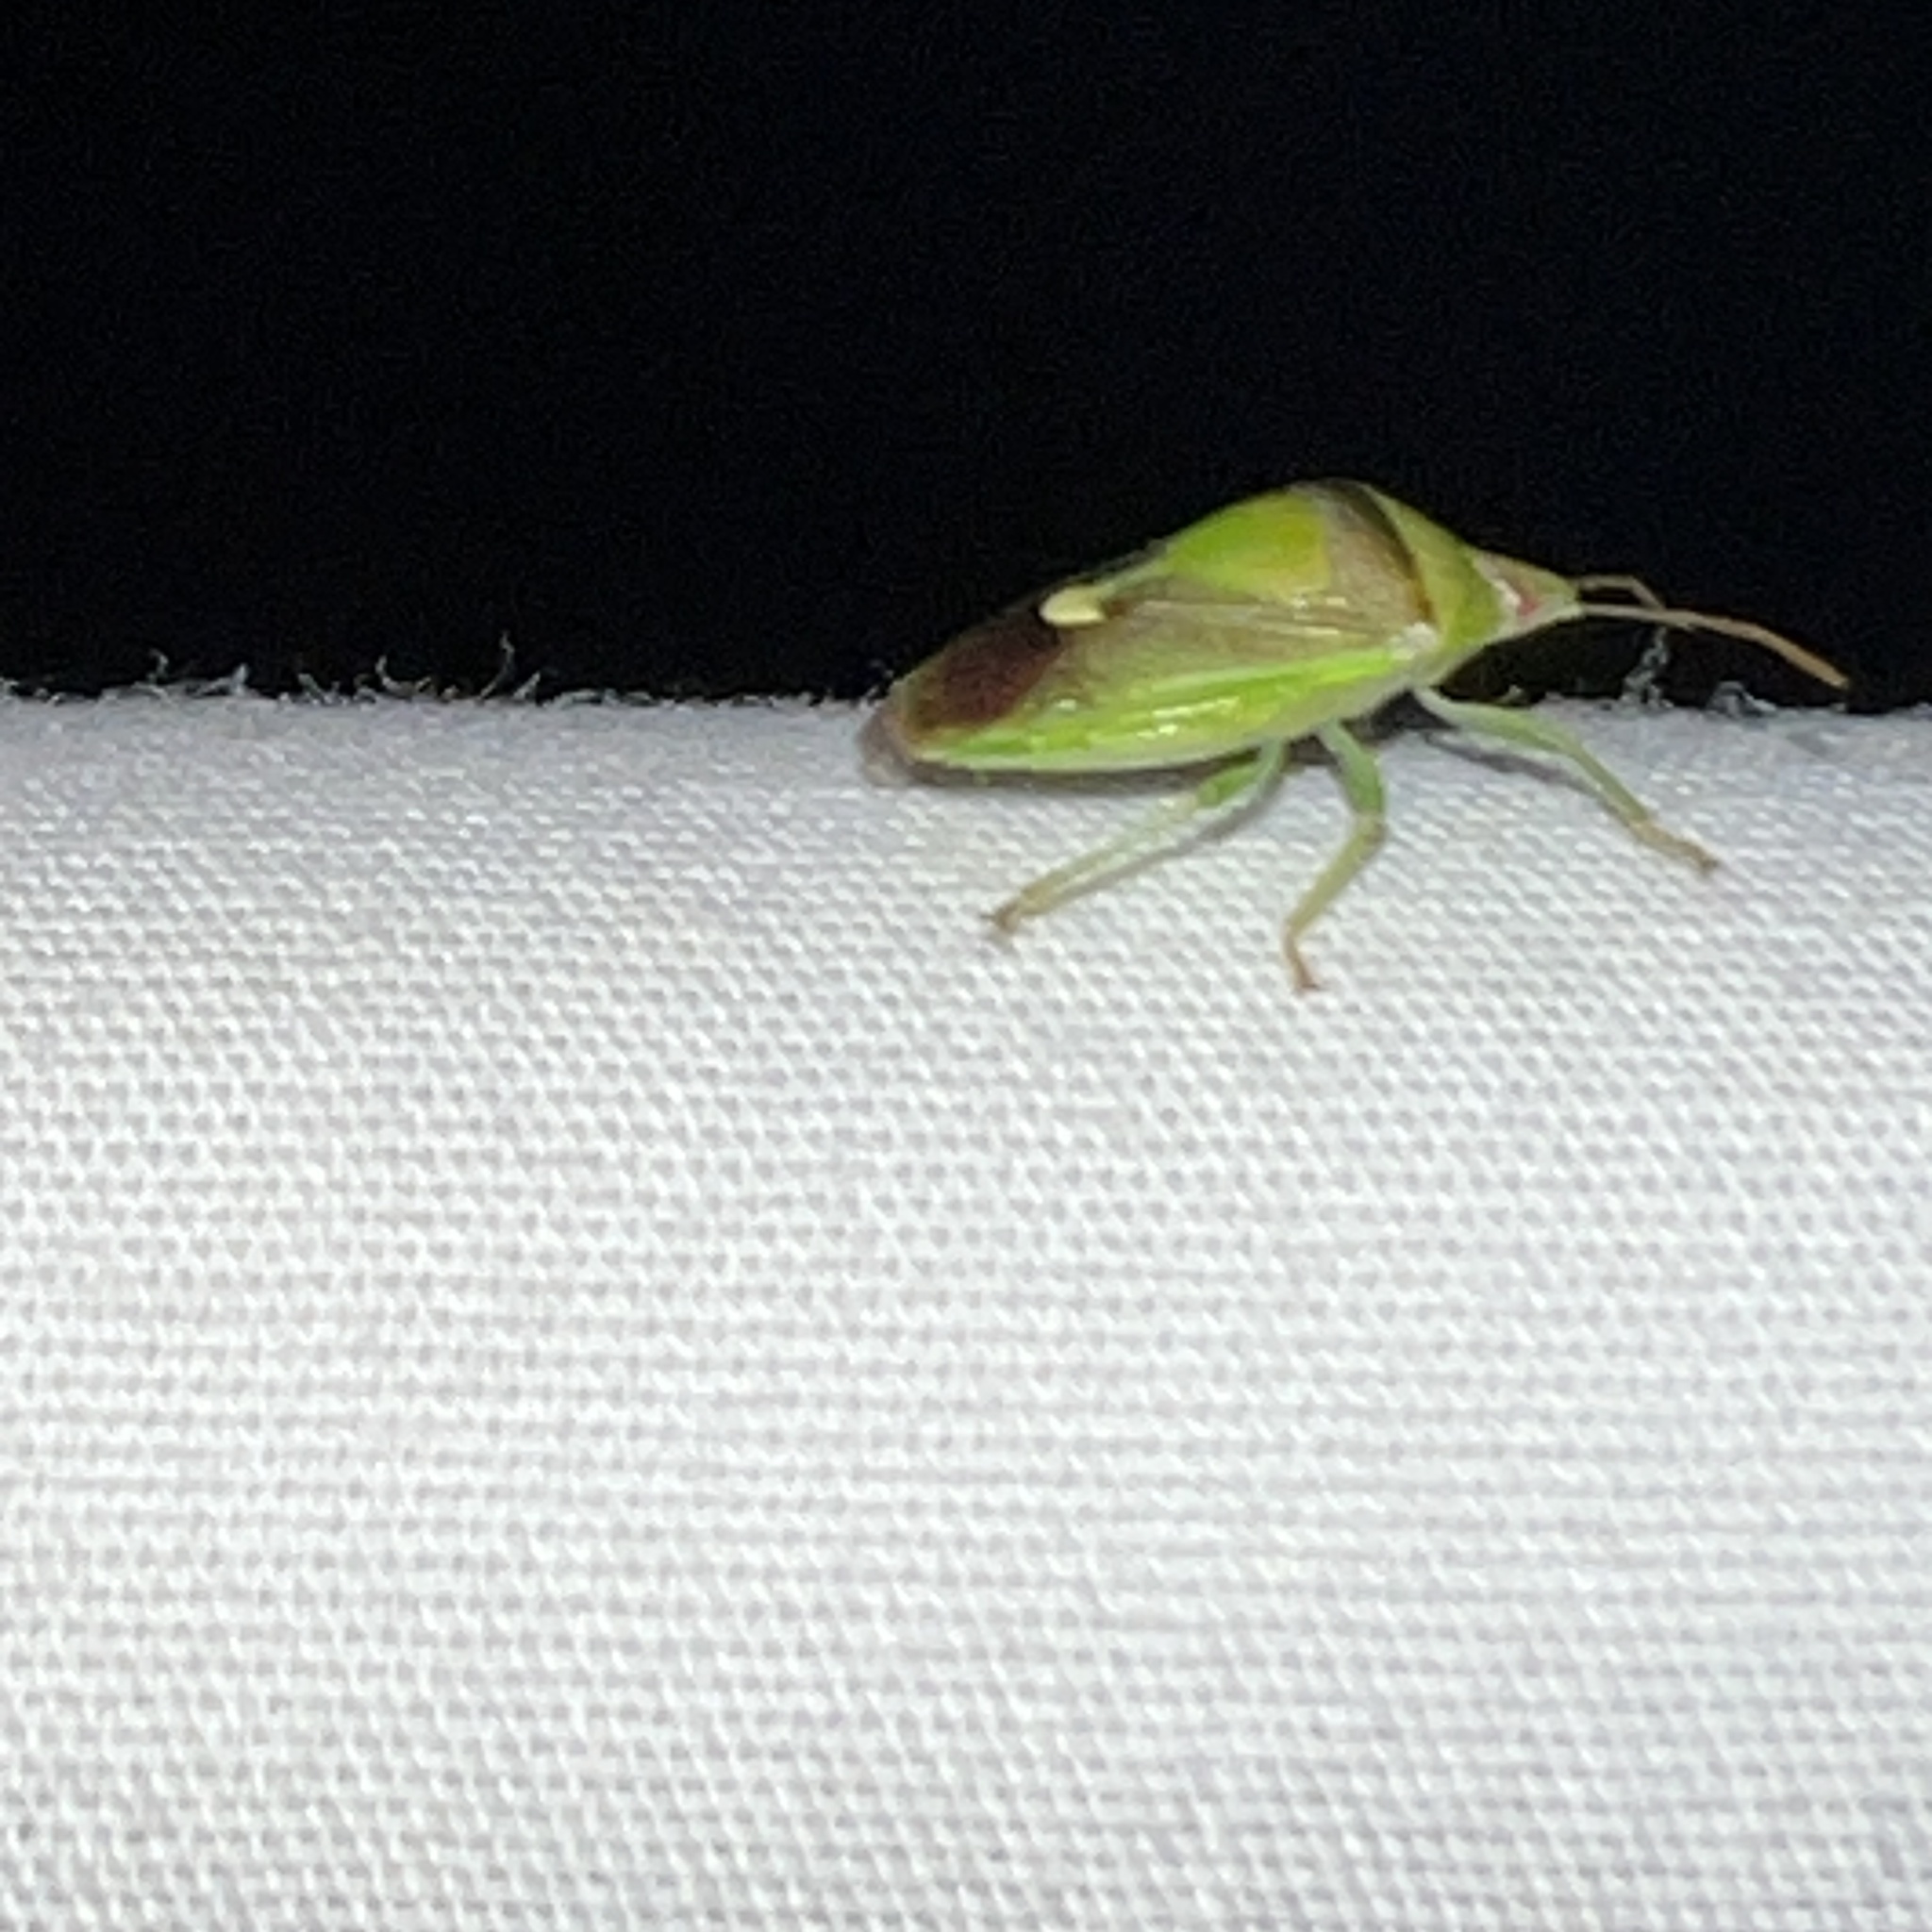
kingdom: Animalia
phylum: Arthropoda
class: Insecta
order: Hemiptera
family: Pentatomidae
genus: Banasa
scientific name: Banasa dimidiata
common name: Green burgundy stink bug
